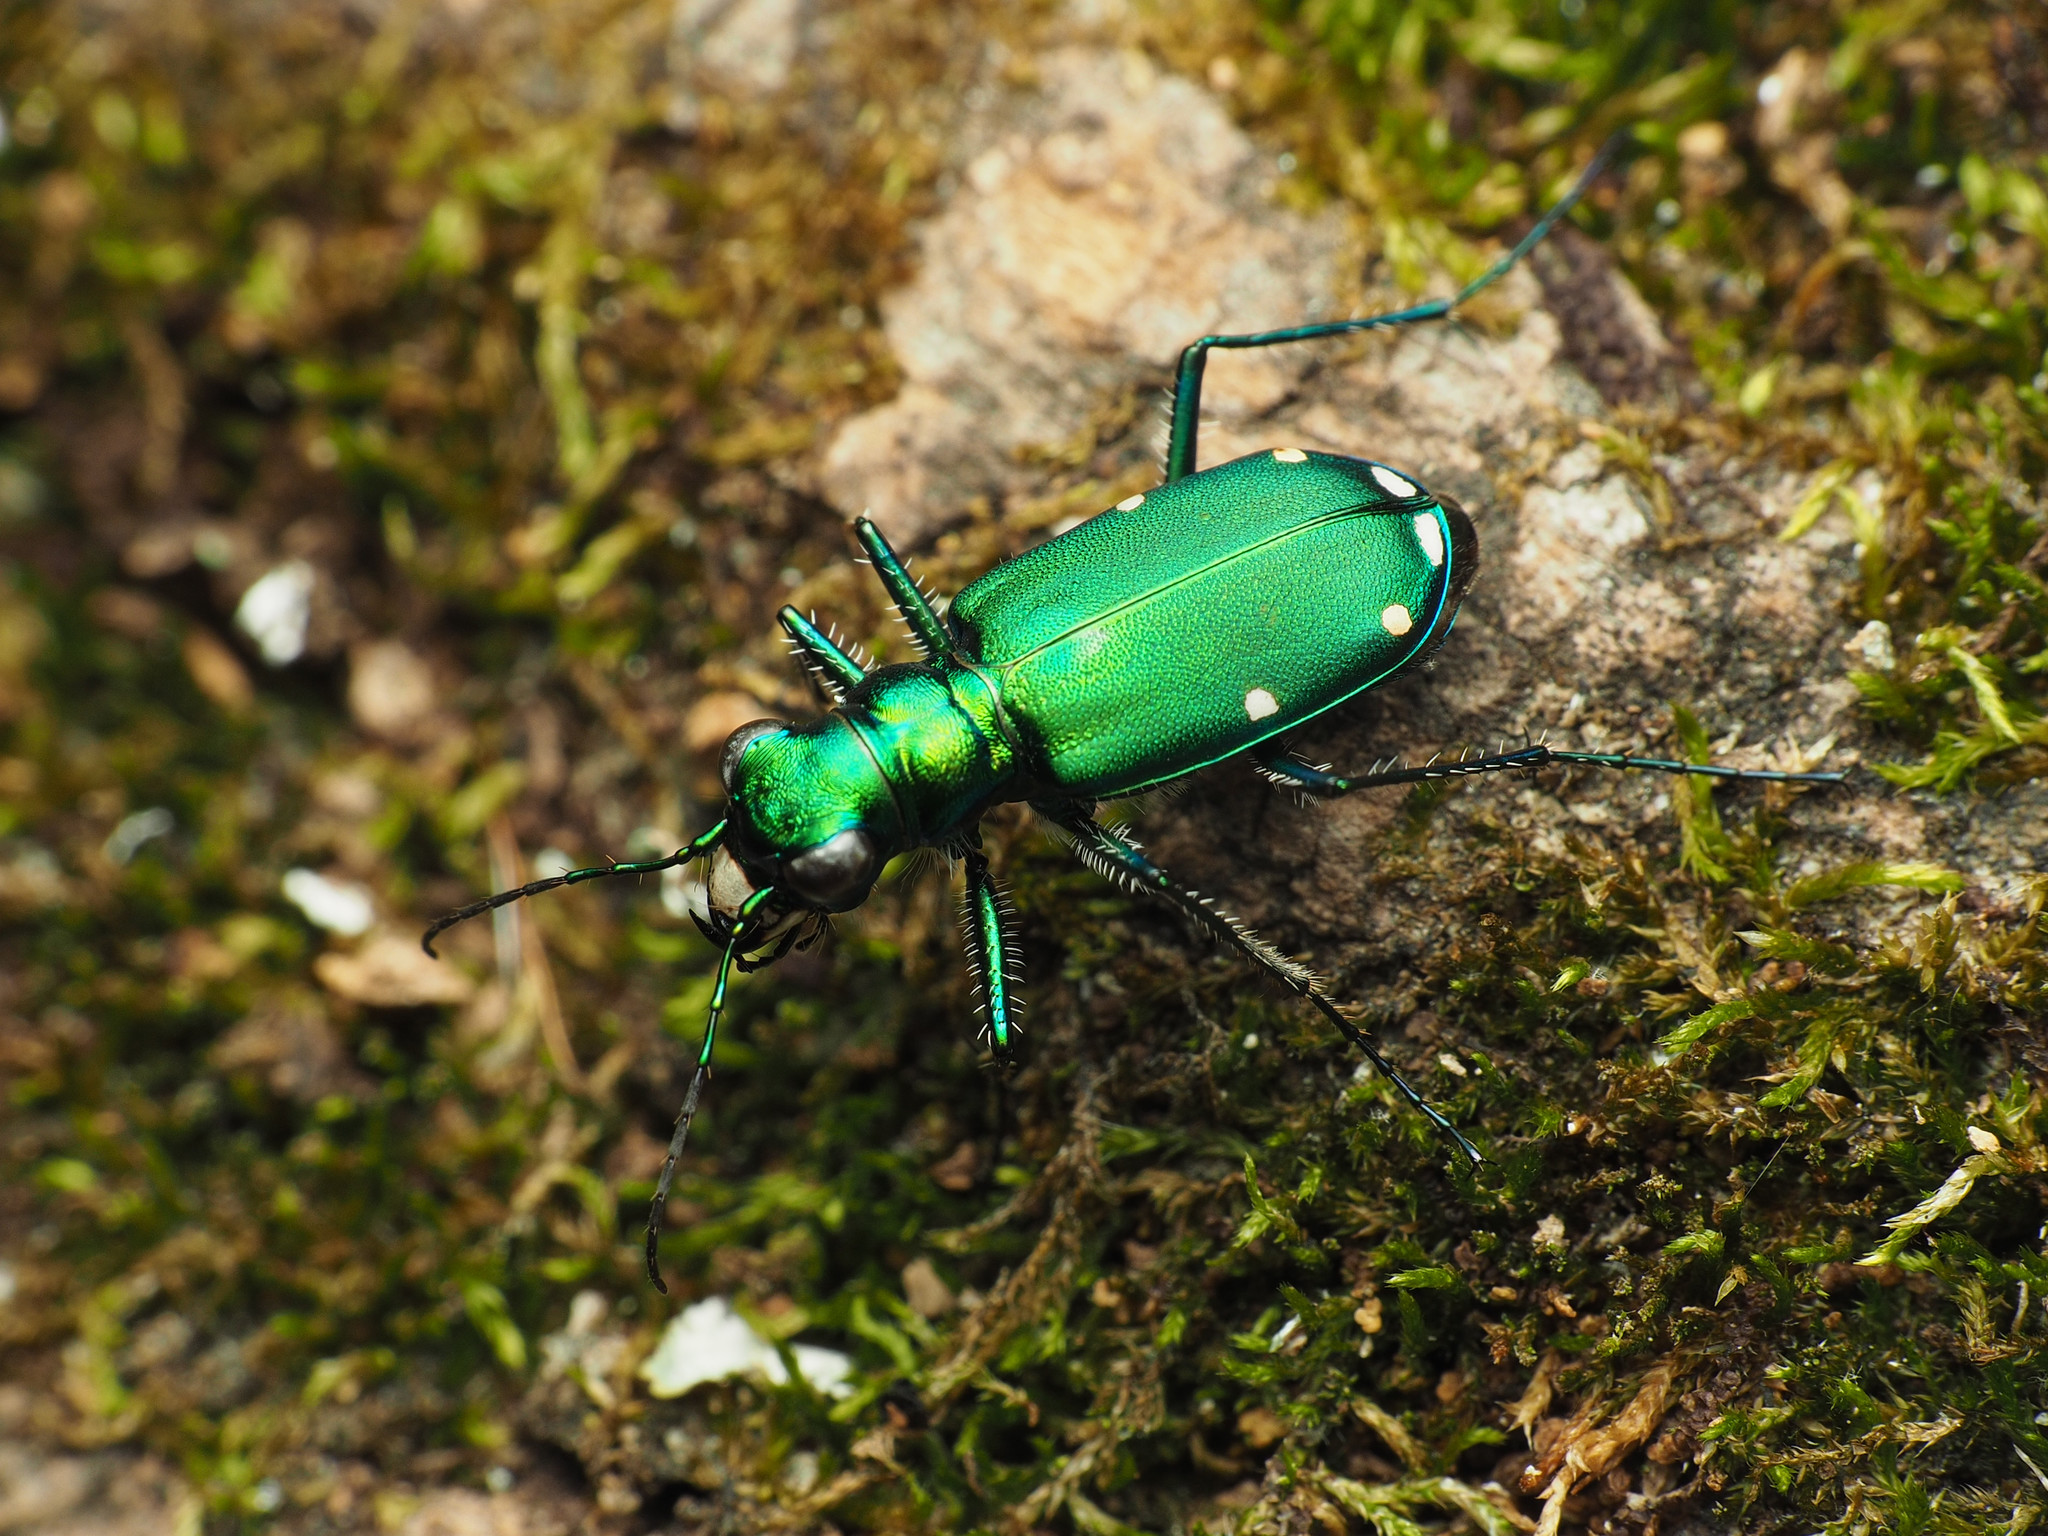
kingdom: Animalia
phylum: Arthropoda
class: Insecta
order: Coleoptera
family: Carabidae
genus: Cicindela
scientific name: Cicindela sexguttata
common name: Six-spotted tiger beetle
